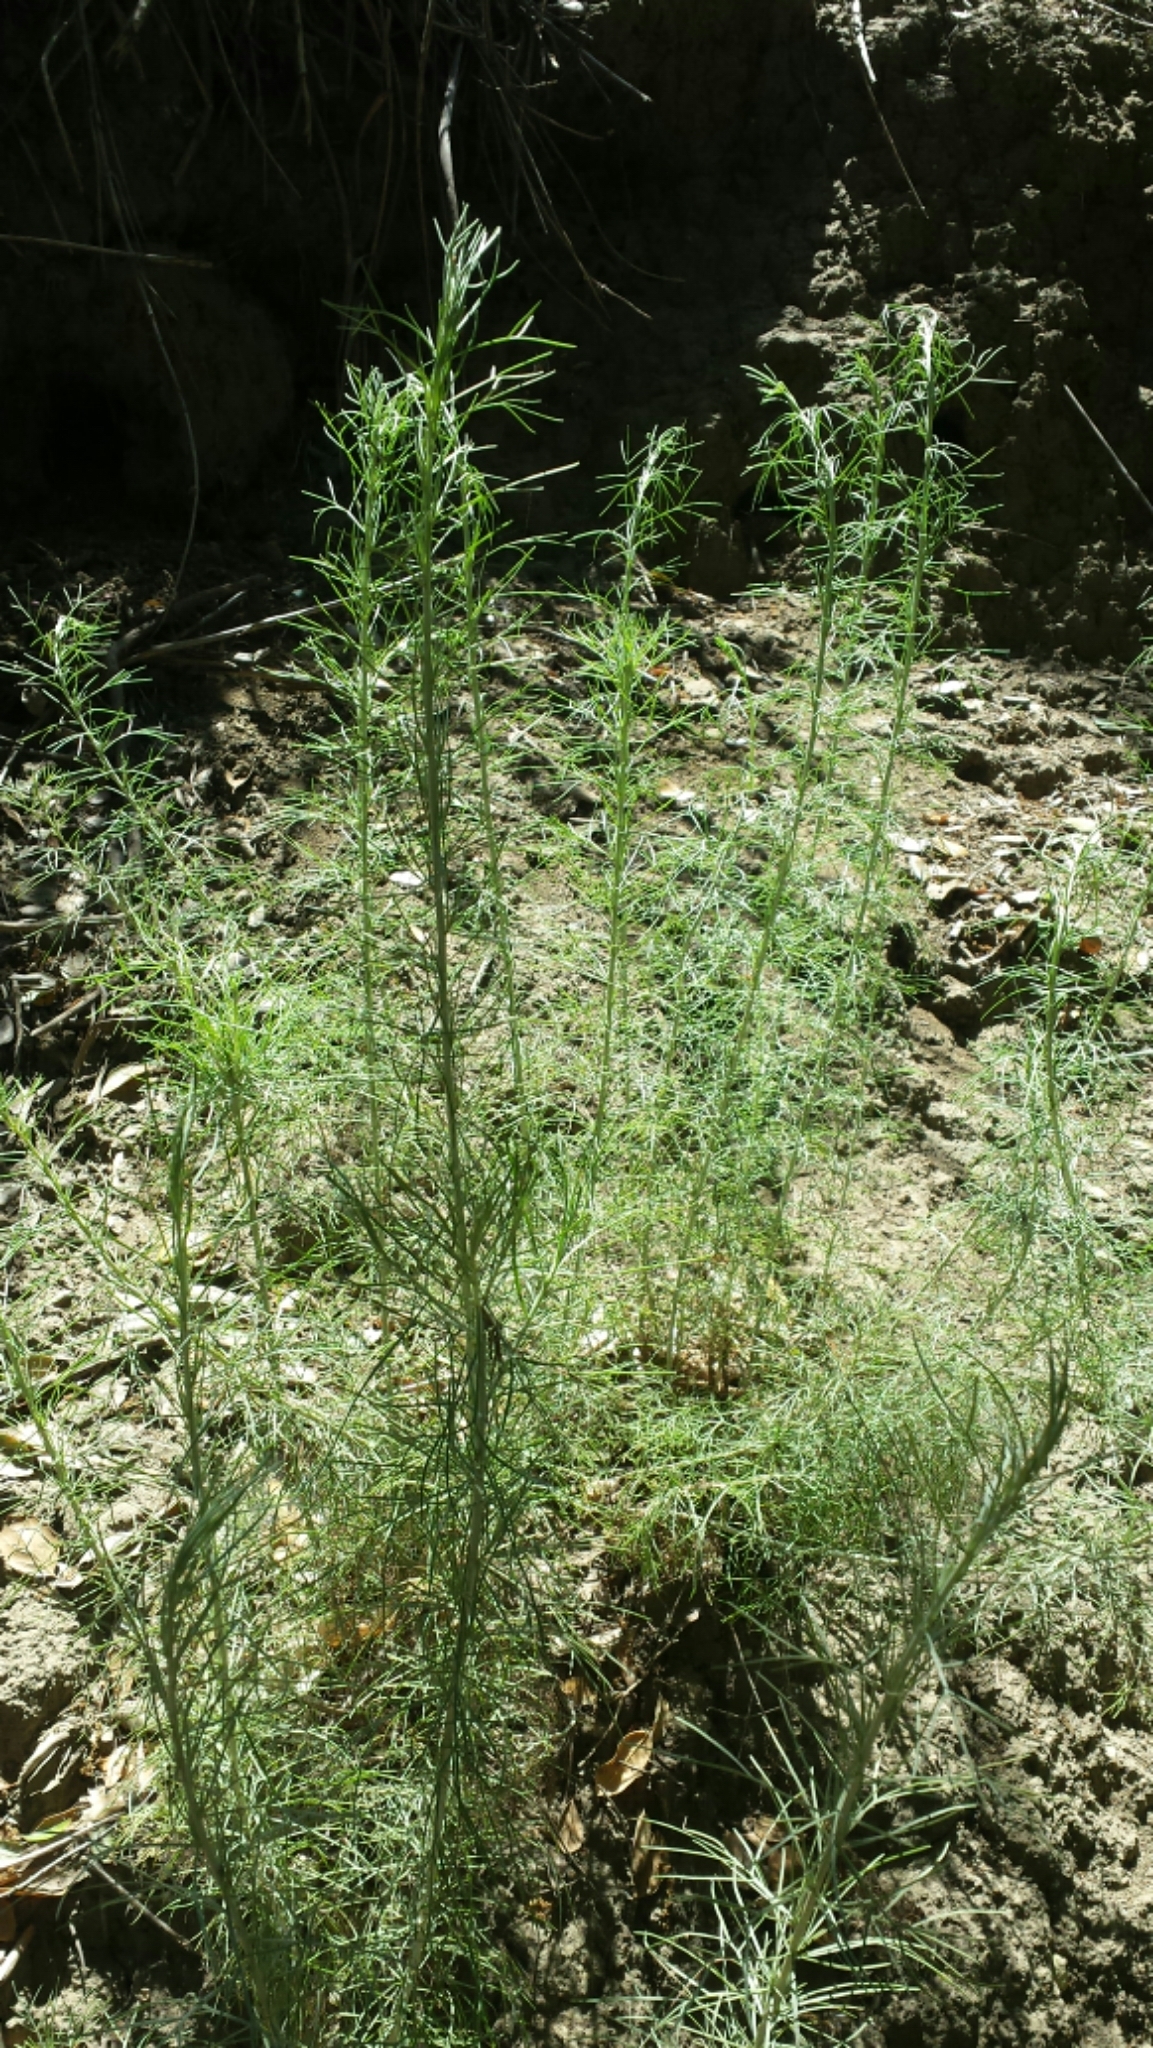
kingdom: Plantae
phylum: Tracheophyta
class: Magnoliopsida
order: Asterales
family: Asteraceae
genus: Artemisia
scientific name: Artemisia californica
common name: California sagebrush
